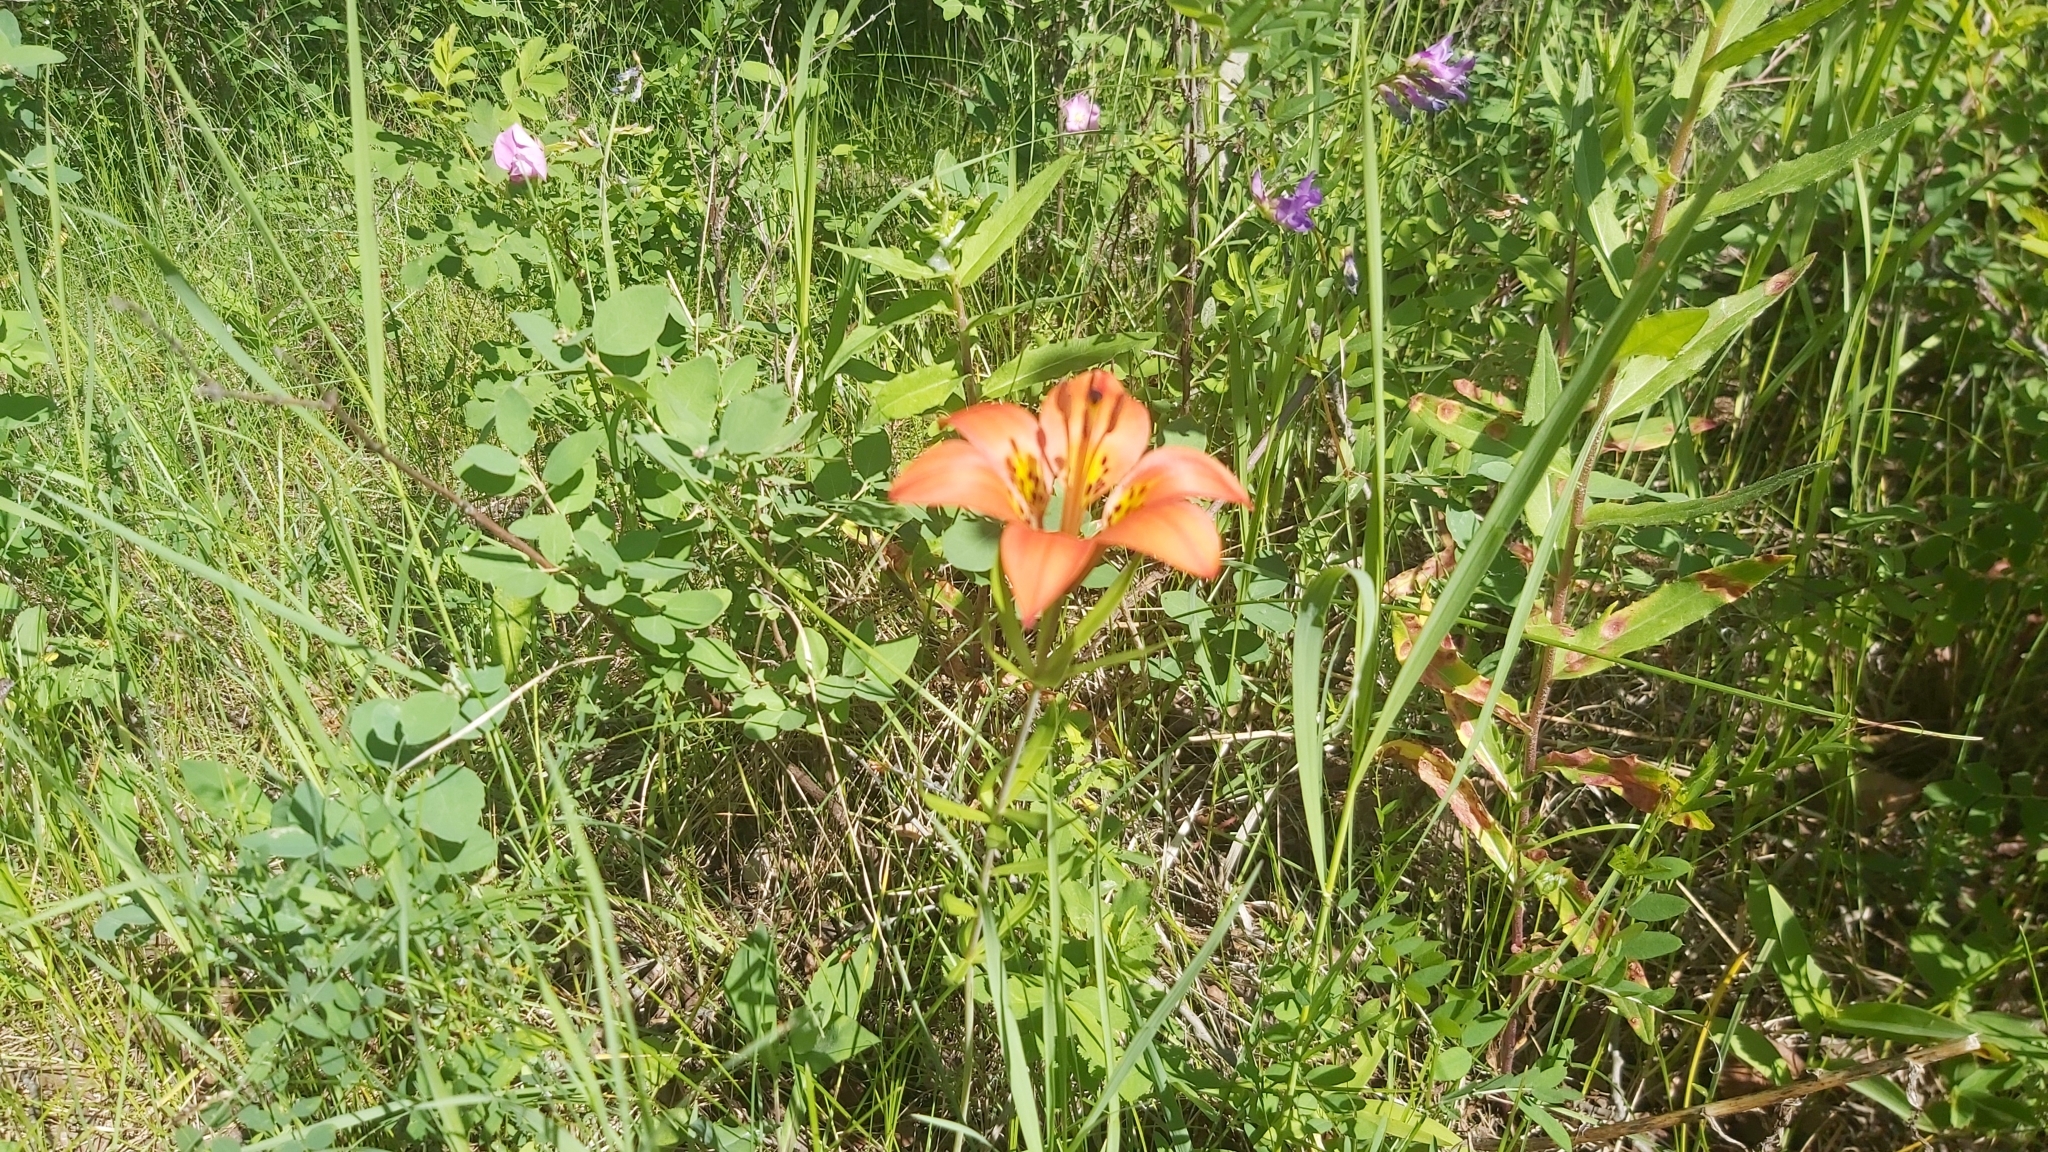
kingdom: Plantae
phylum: Tracheophyta
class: Liliopsida
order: Liliales
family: Liliaceae
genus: Lilium
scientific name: Lilium philadelphicum
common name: Red lily
